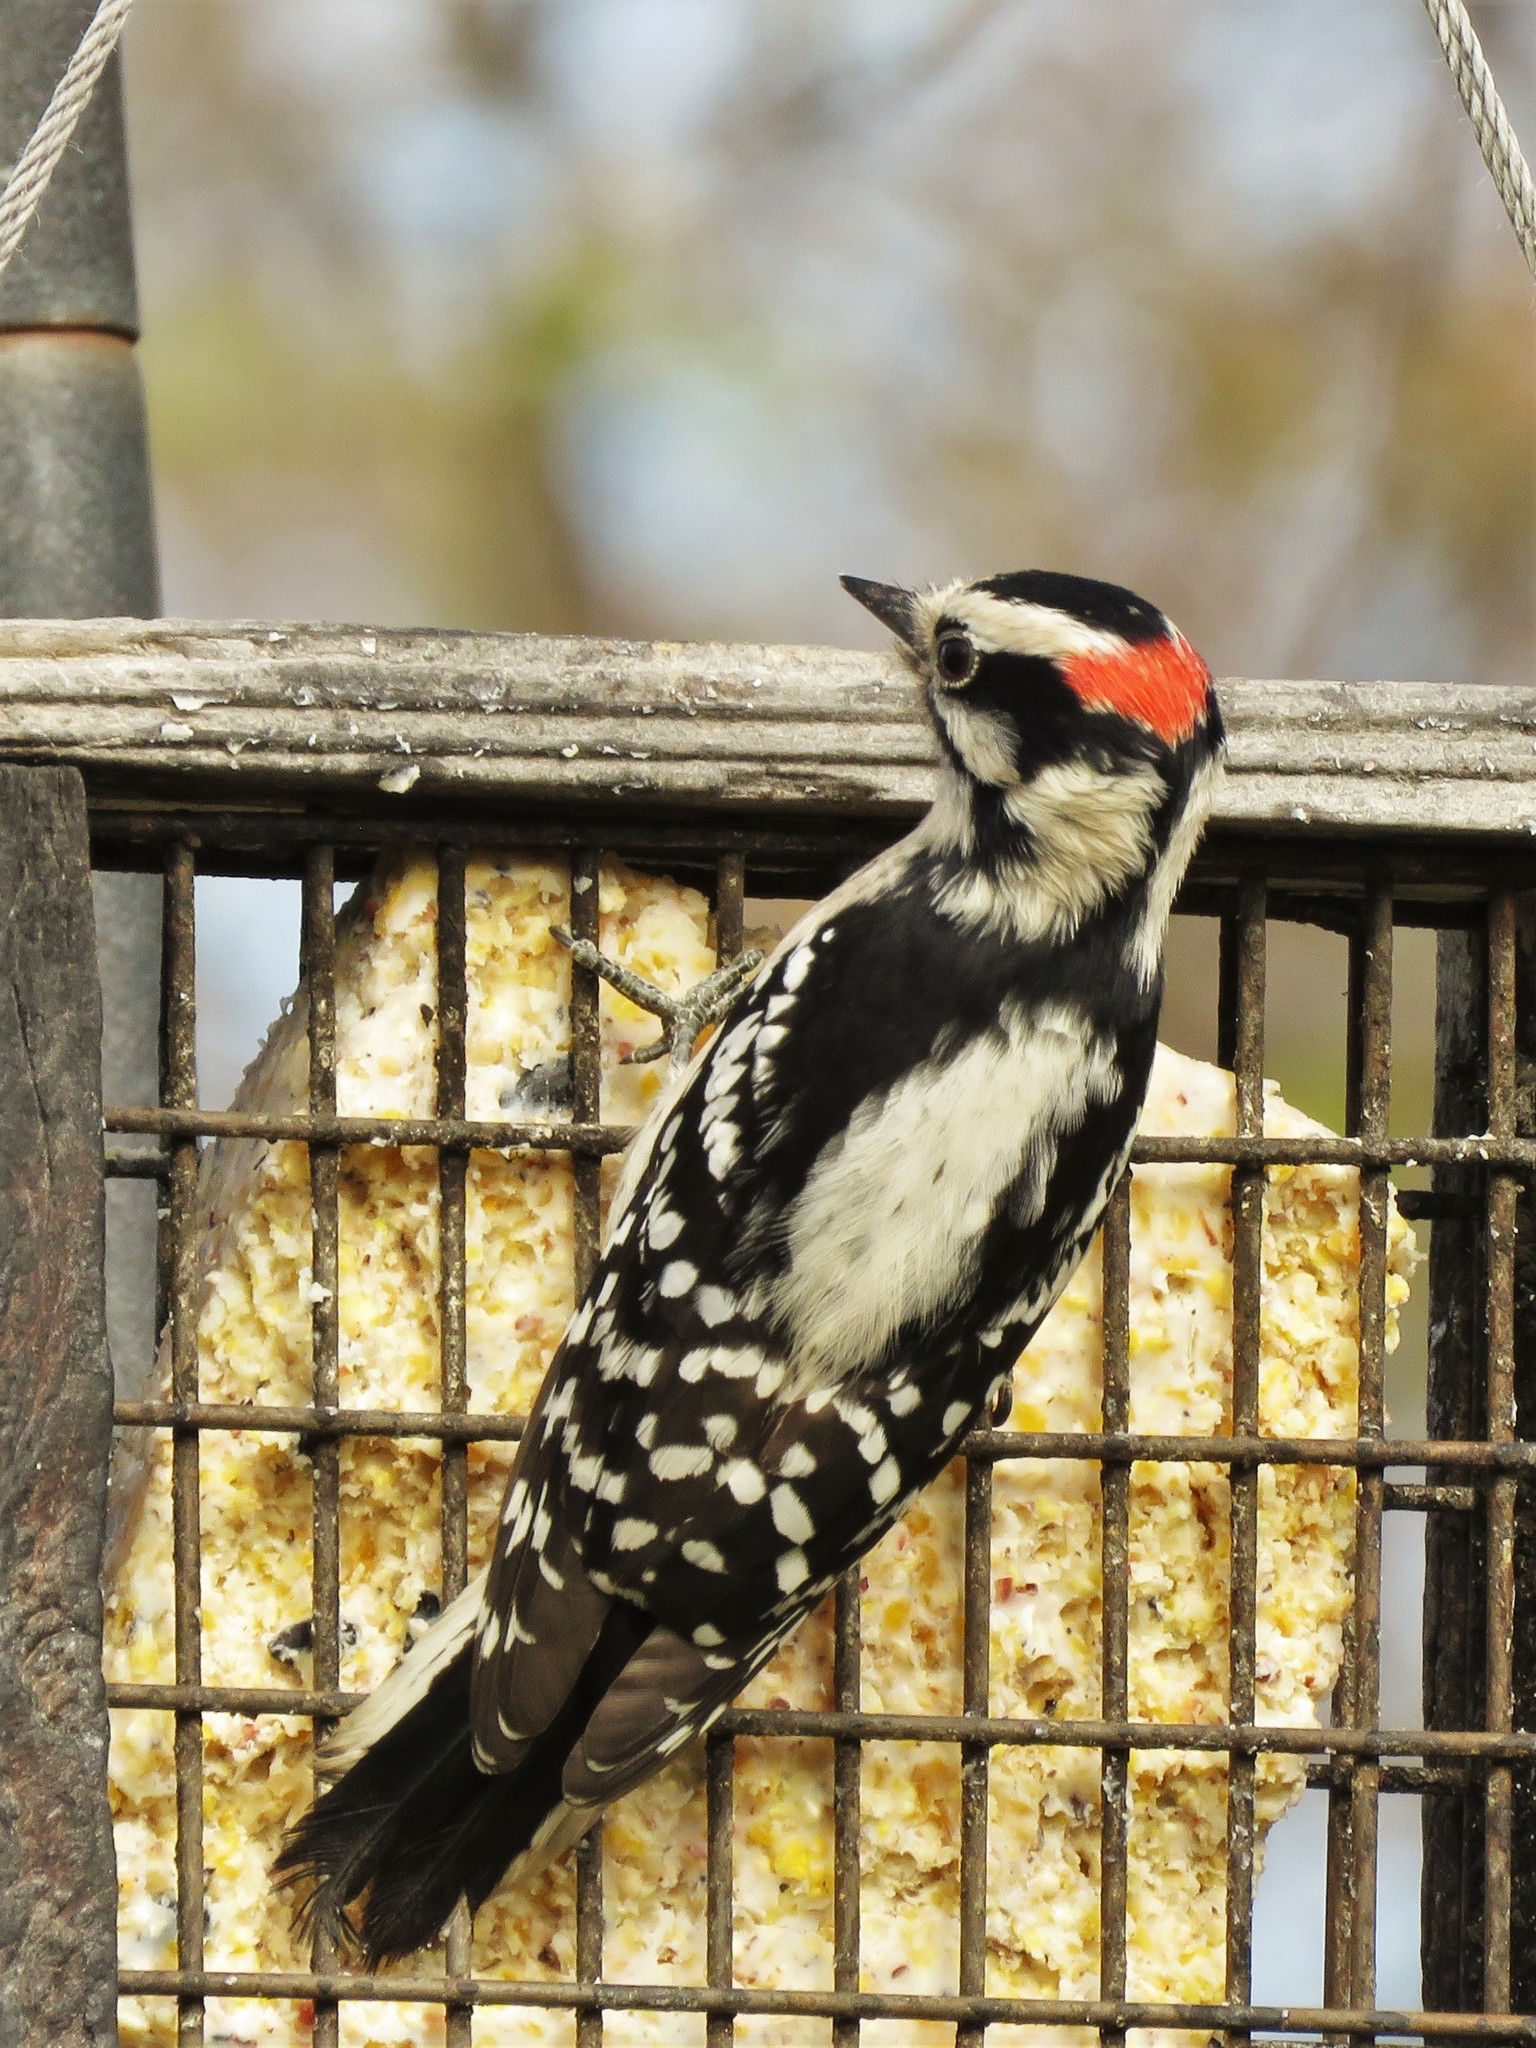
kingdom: Animalia
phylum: Chordata
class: Aves
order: Piciformes
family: Picidae
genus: Dryobates
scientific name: Dryobates pubescens
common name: Downy woodpecker
